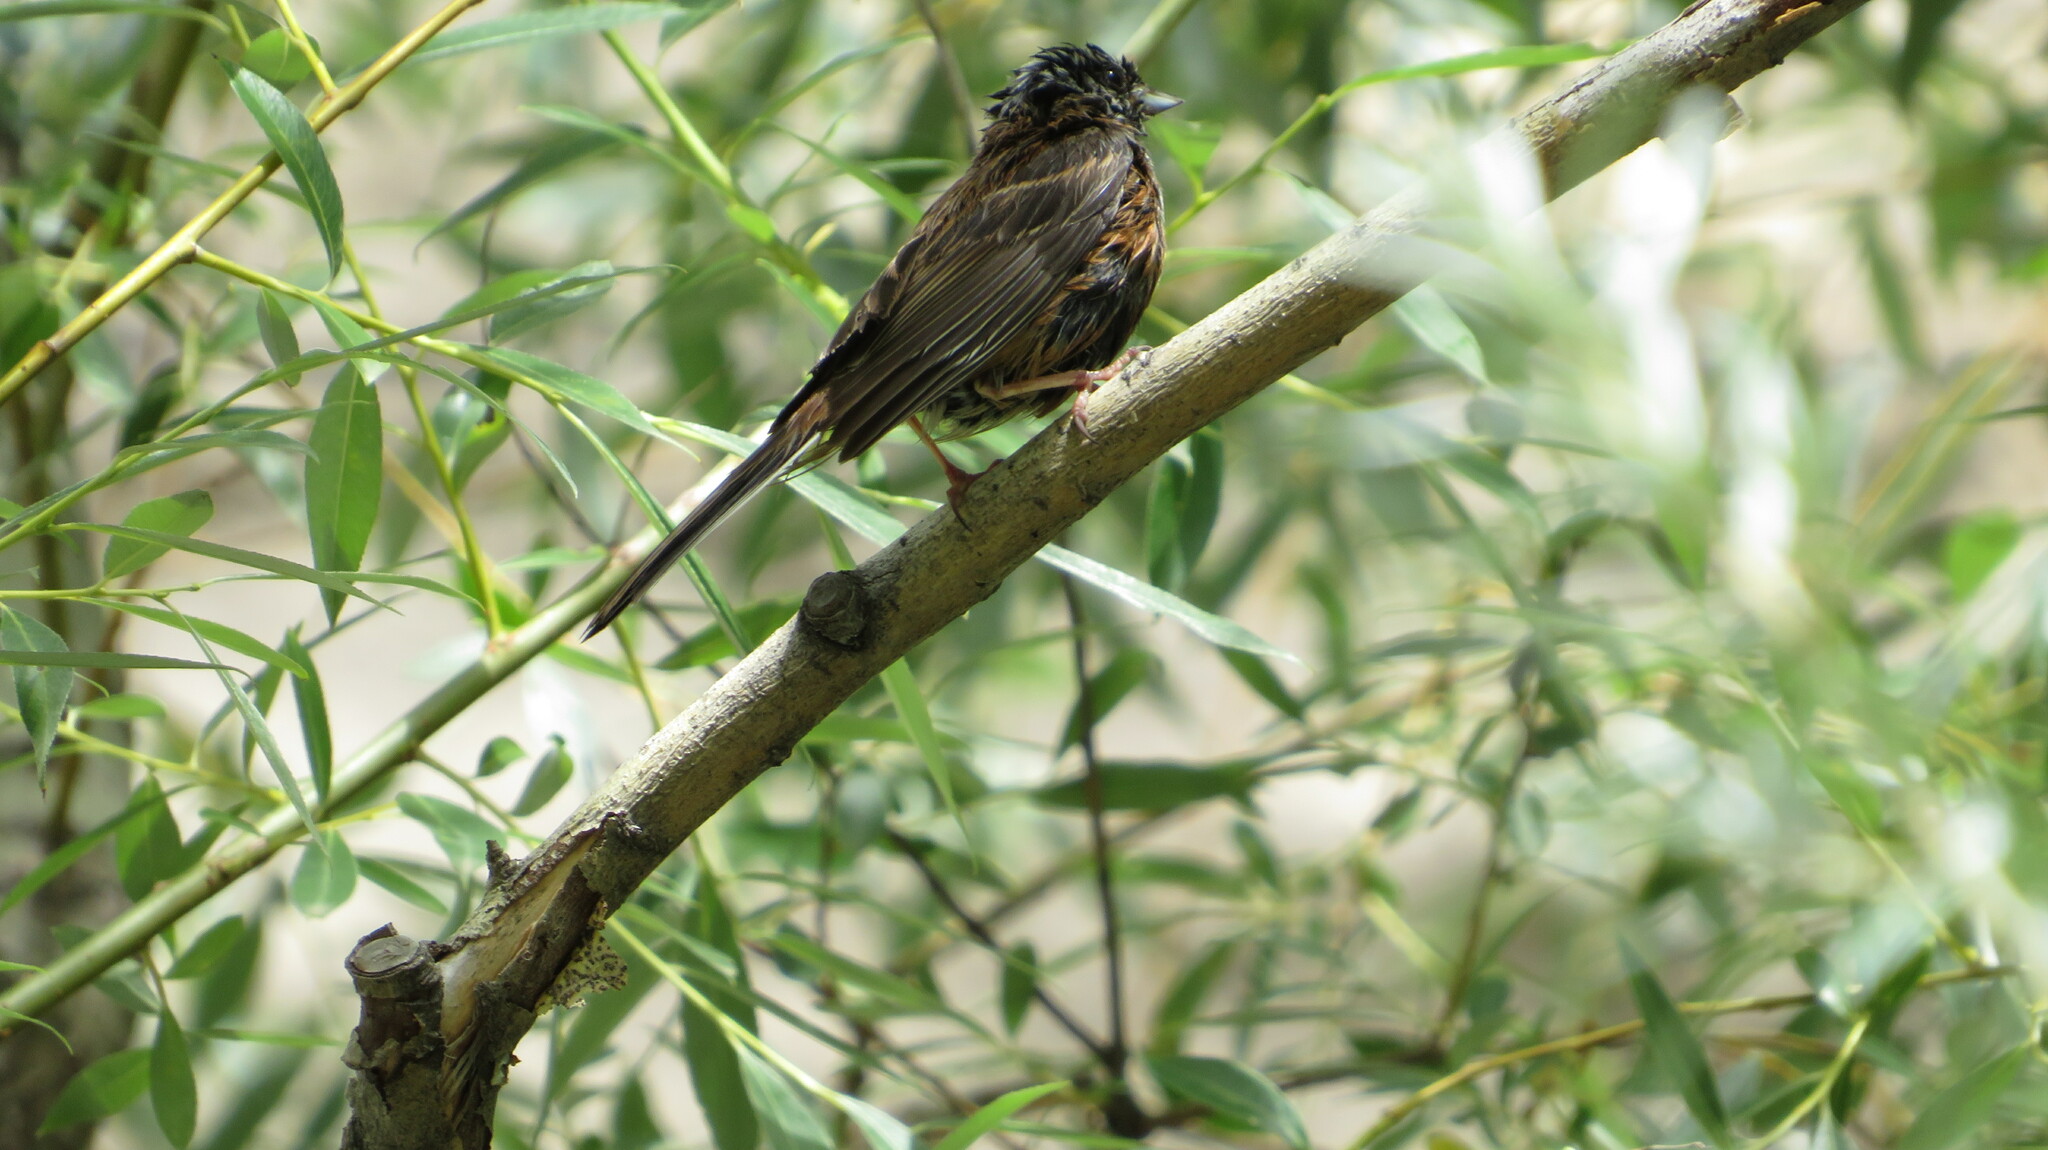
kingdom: Animalia
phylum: Chordata
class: Aves
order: Passeriformes
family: Emberizidae
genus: Emberiza
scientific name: Emberiza cia
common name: Rock bunting
